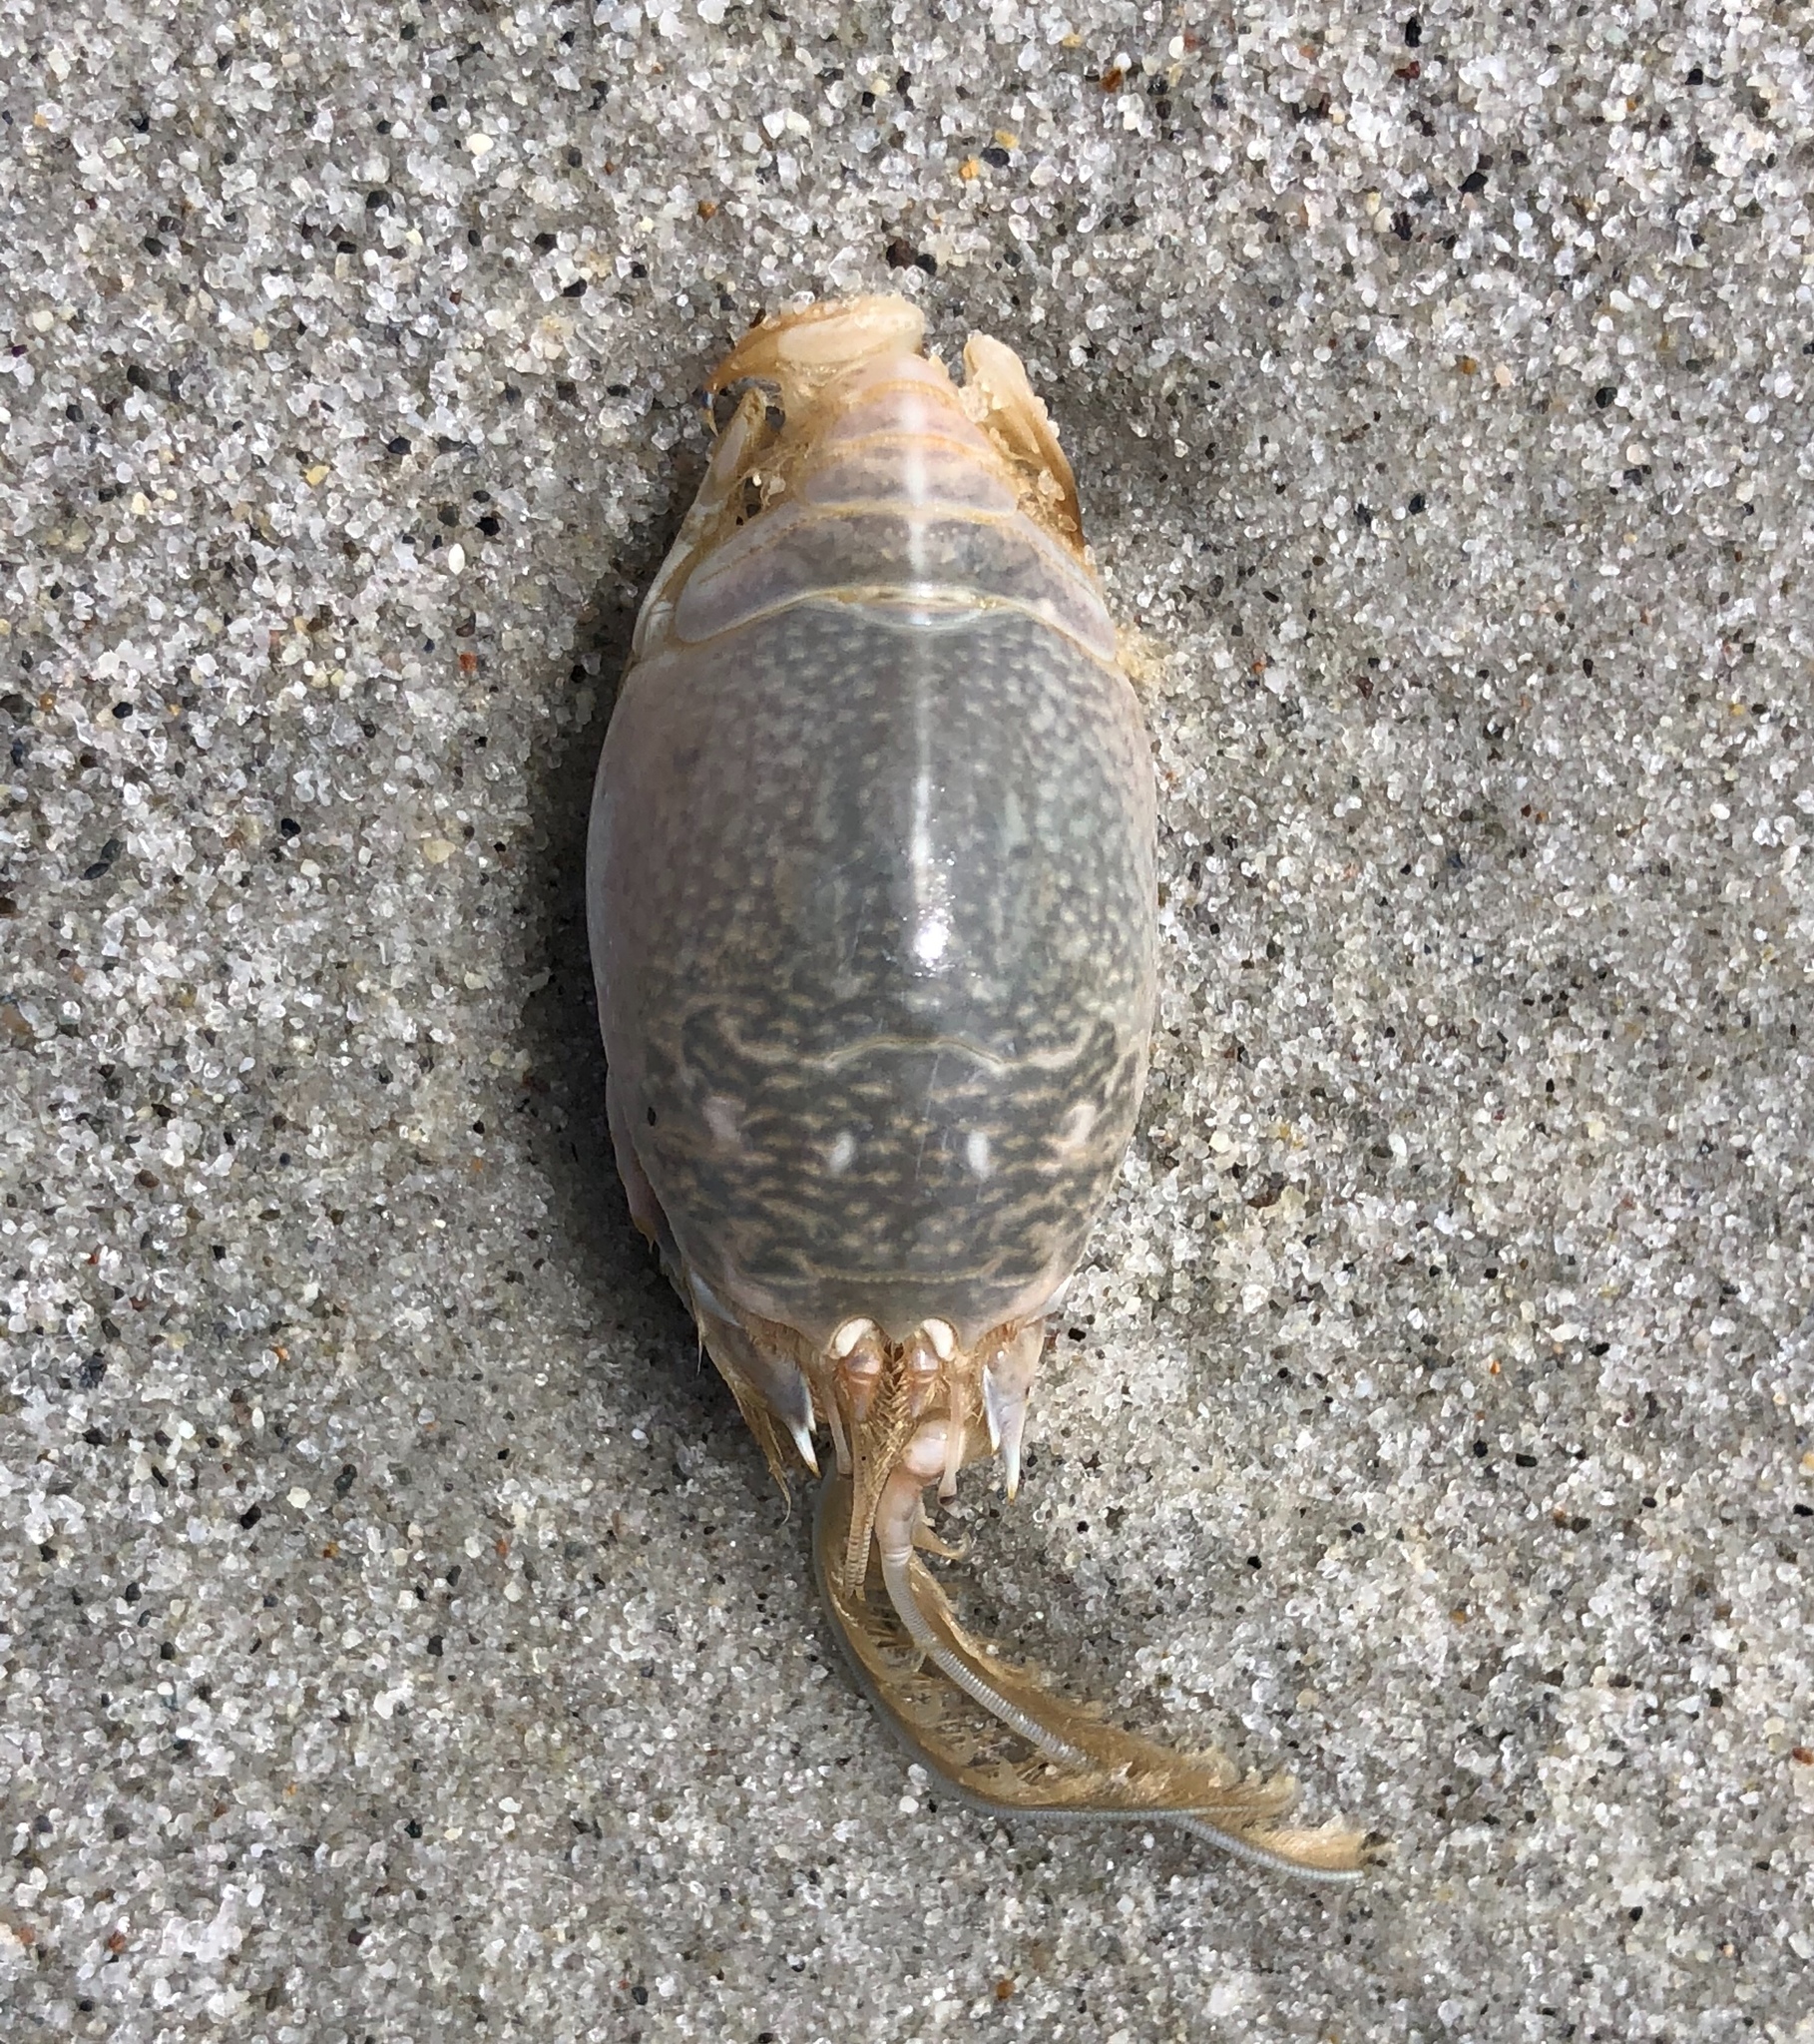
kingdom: Animalia
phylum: Arthropoda
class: Malacostraca
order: Decapoda
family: Hippidae
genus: Emerita
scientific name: Emerita analoga
